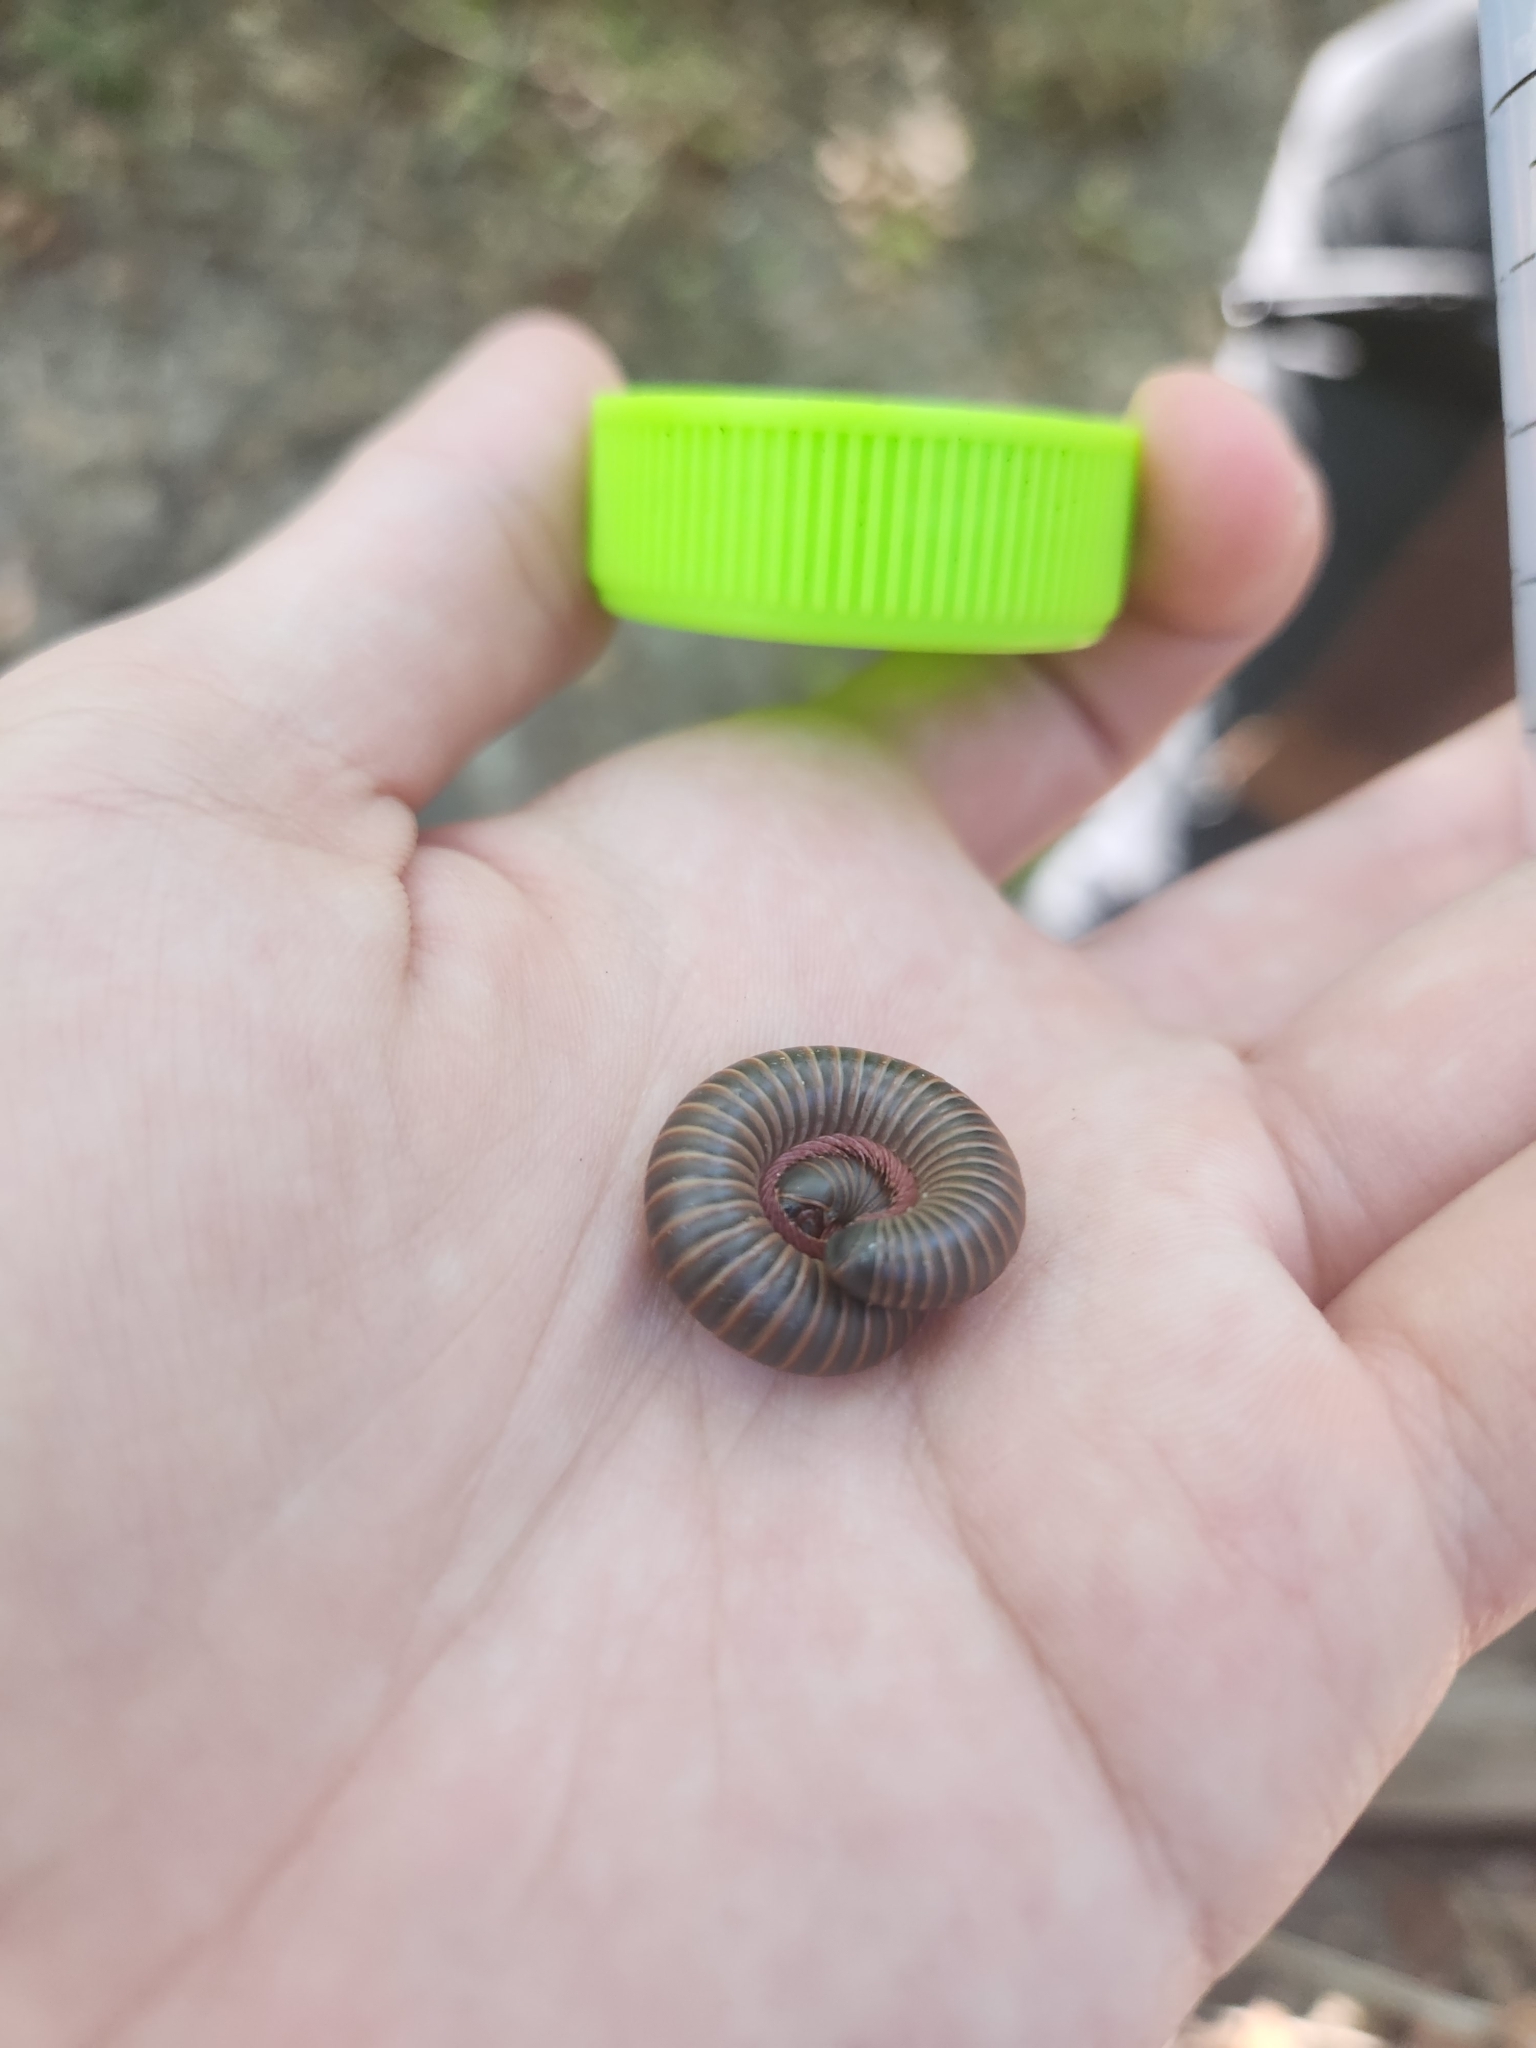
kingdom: Animalia
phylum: Arthropoda
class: Diplopoda
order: Spirobolida
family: Spirobolidae
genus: Narceus
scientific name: Narceus americanus
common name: American giant millipede
